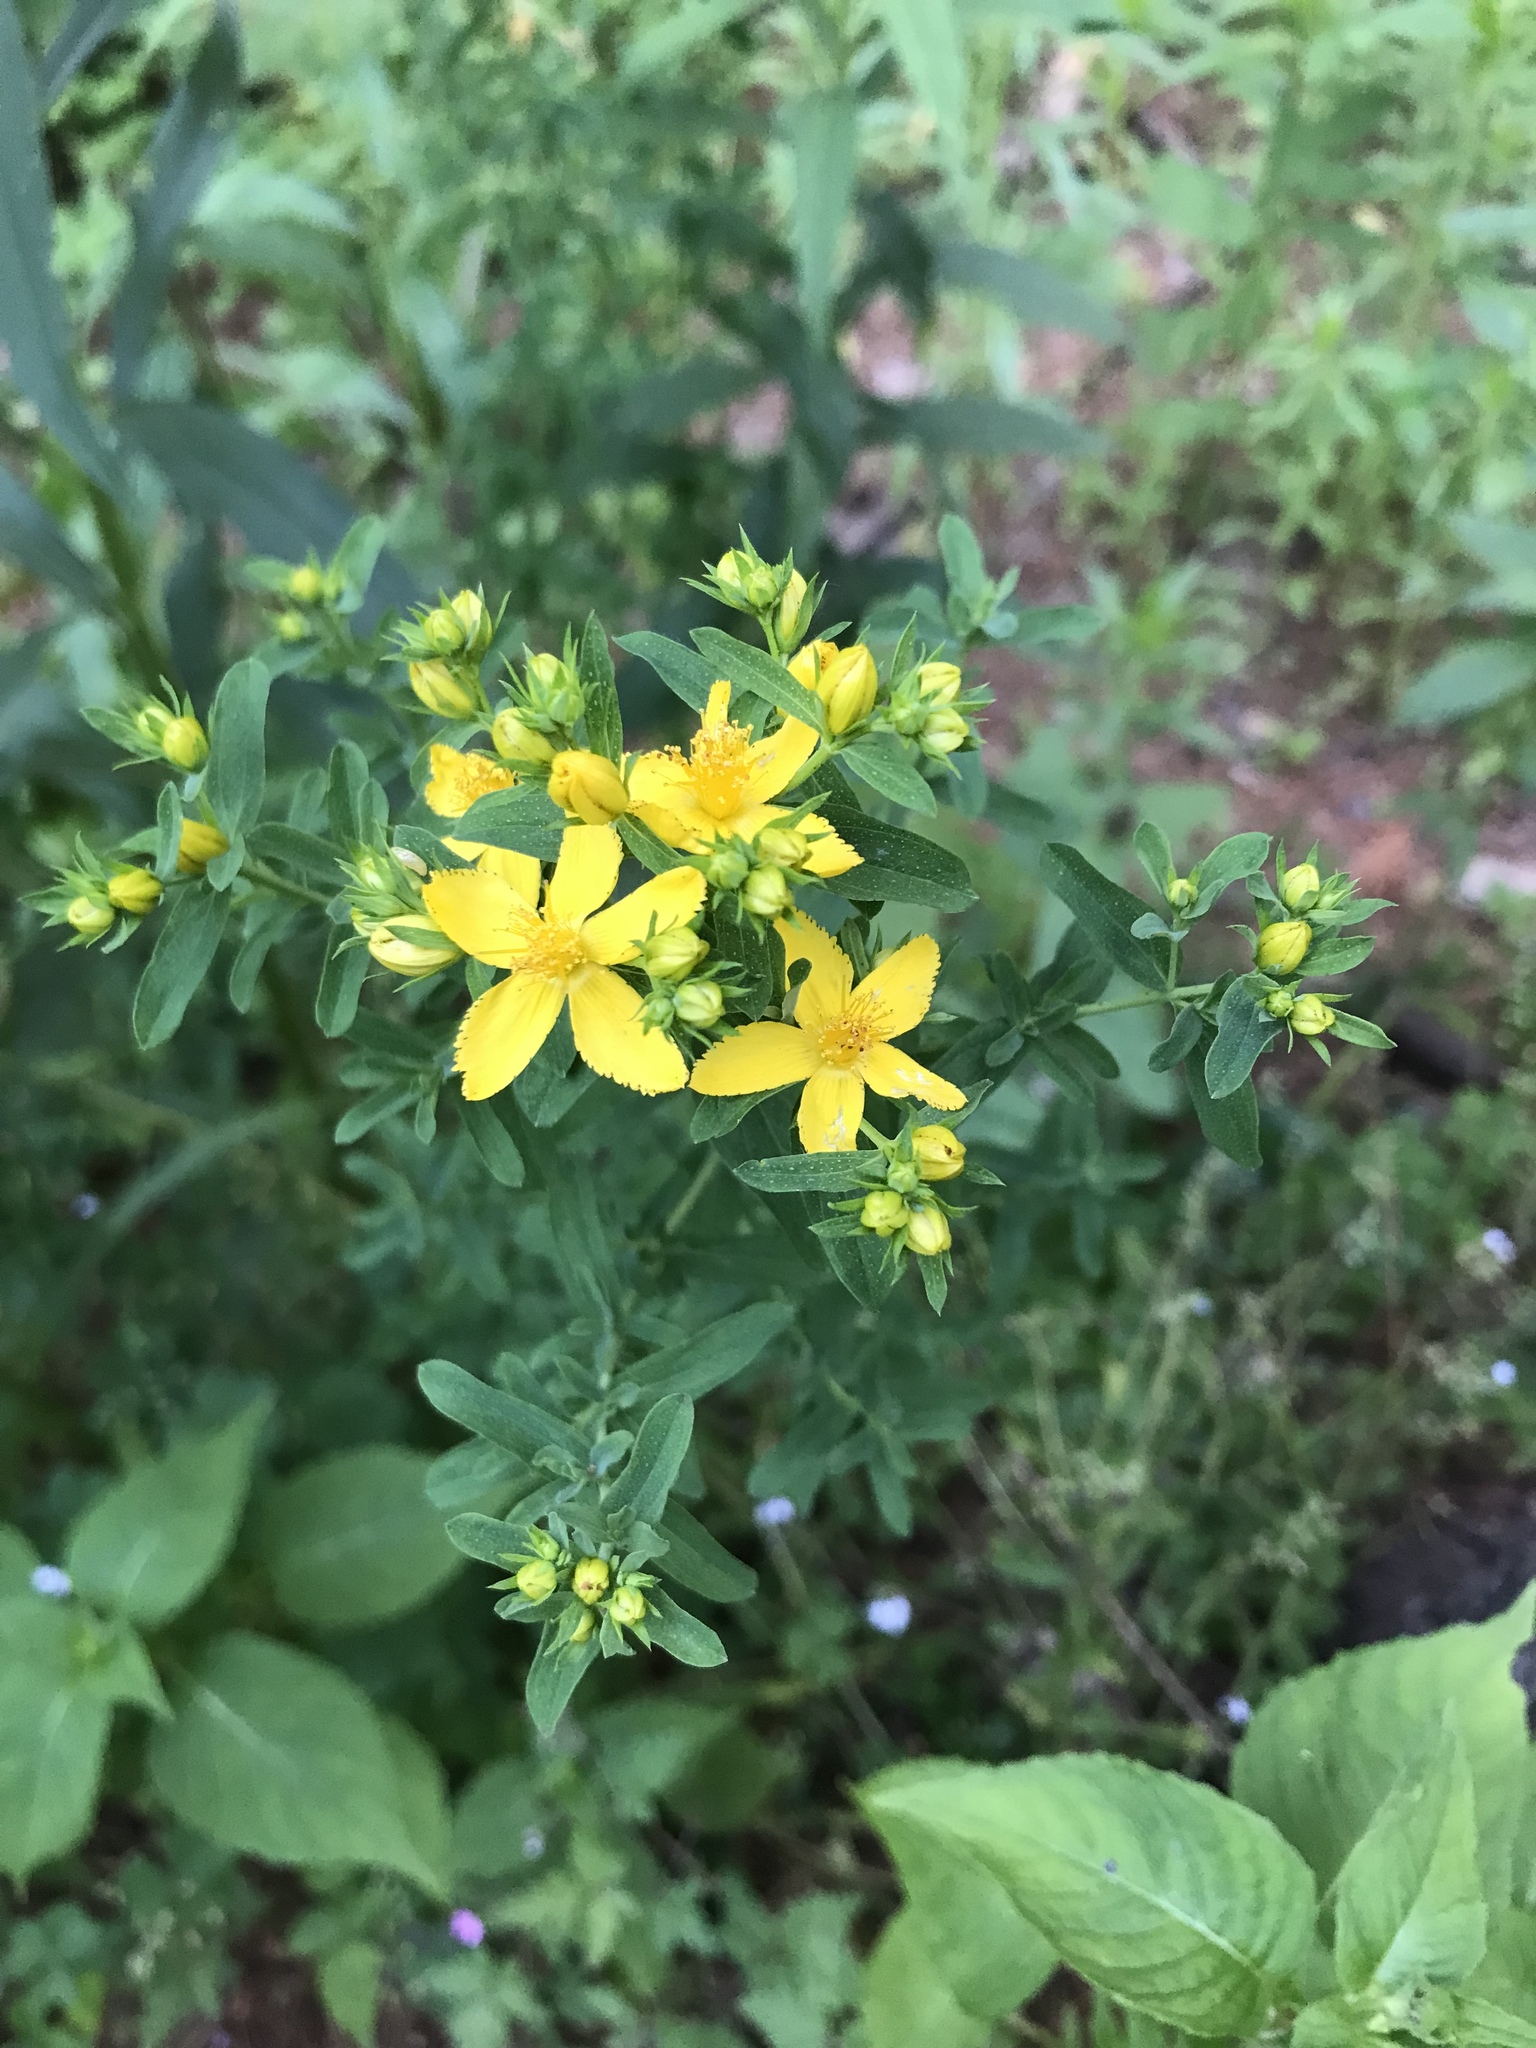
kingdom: Plantae
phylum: Tracheophyta
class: Magnoliopsida
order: Malpighiales
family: Hypericaceae
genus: Hypericum
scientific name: Hypericum perforatum
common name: Common st. johnswort
